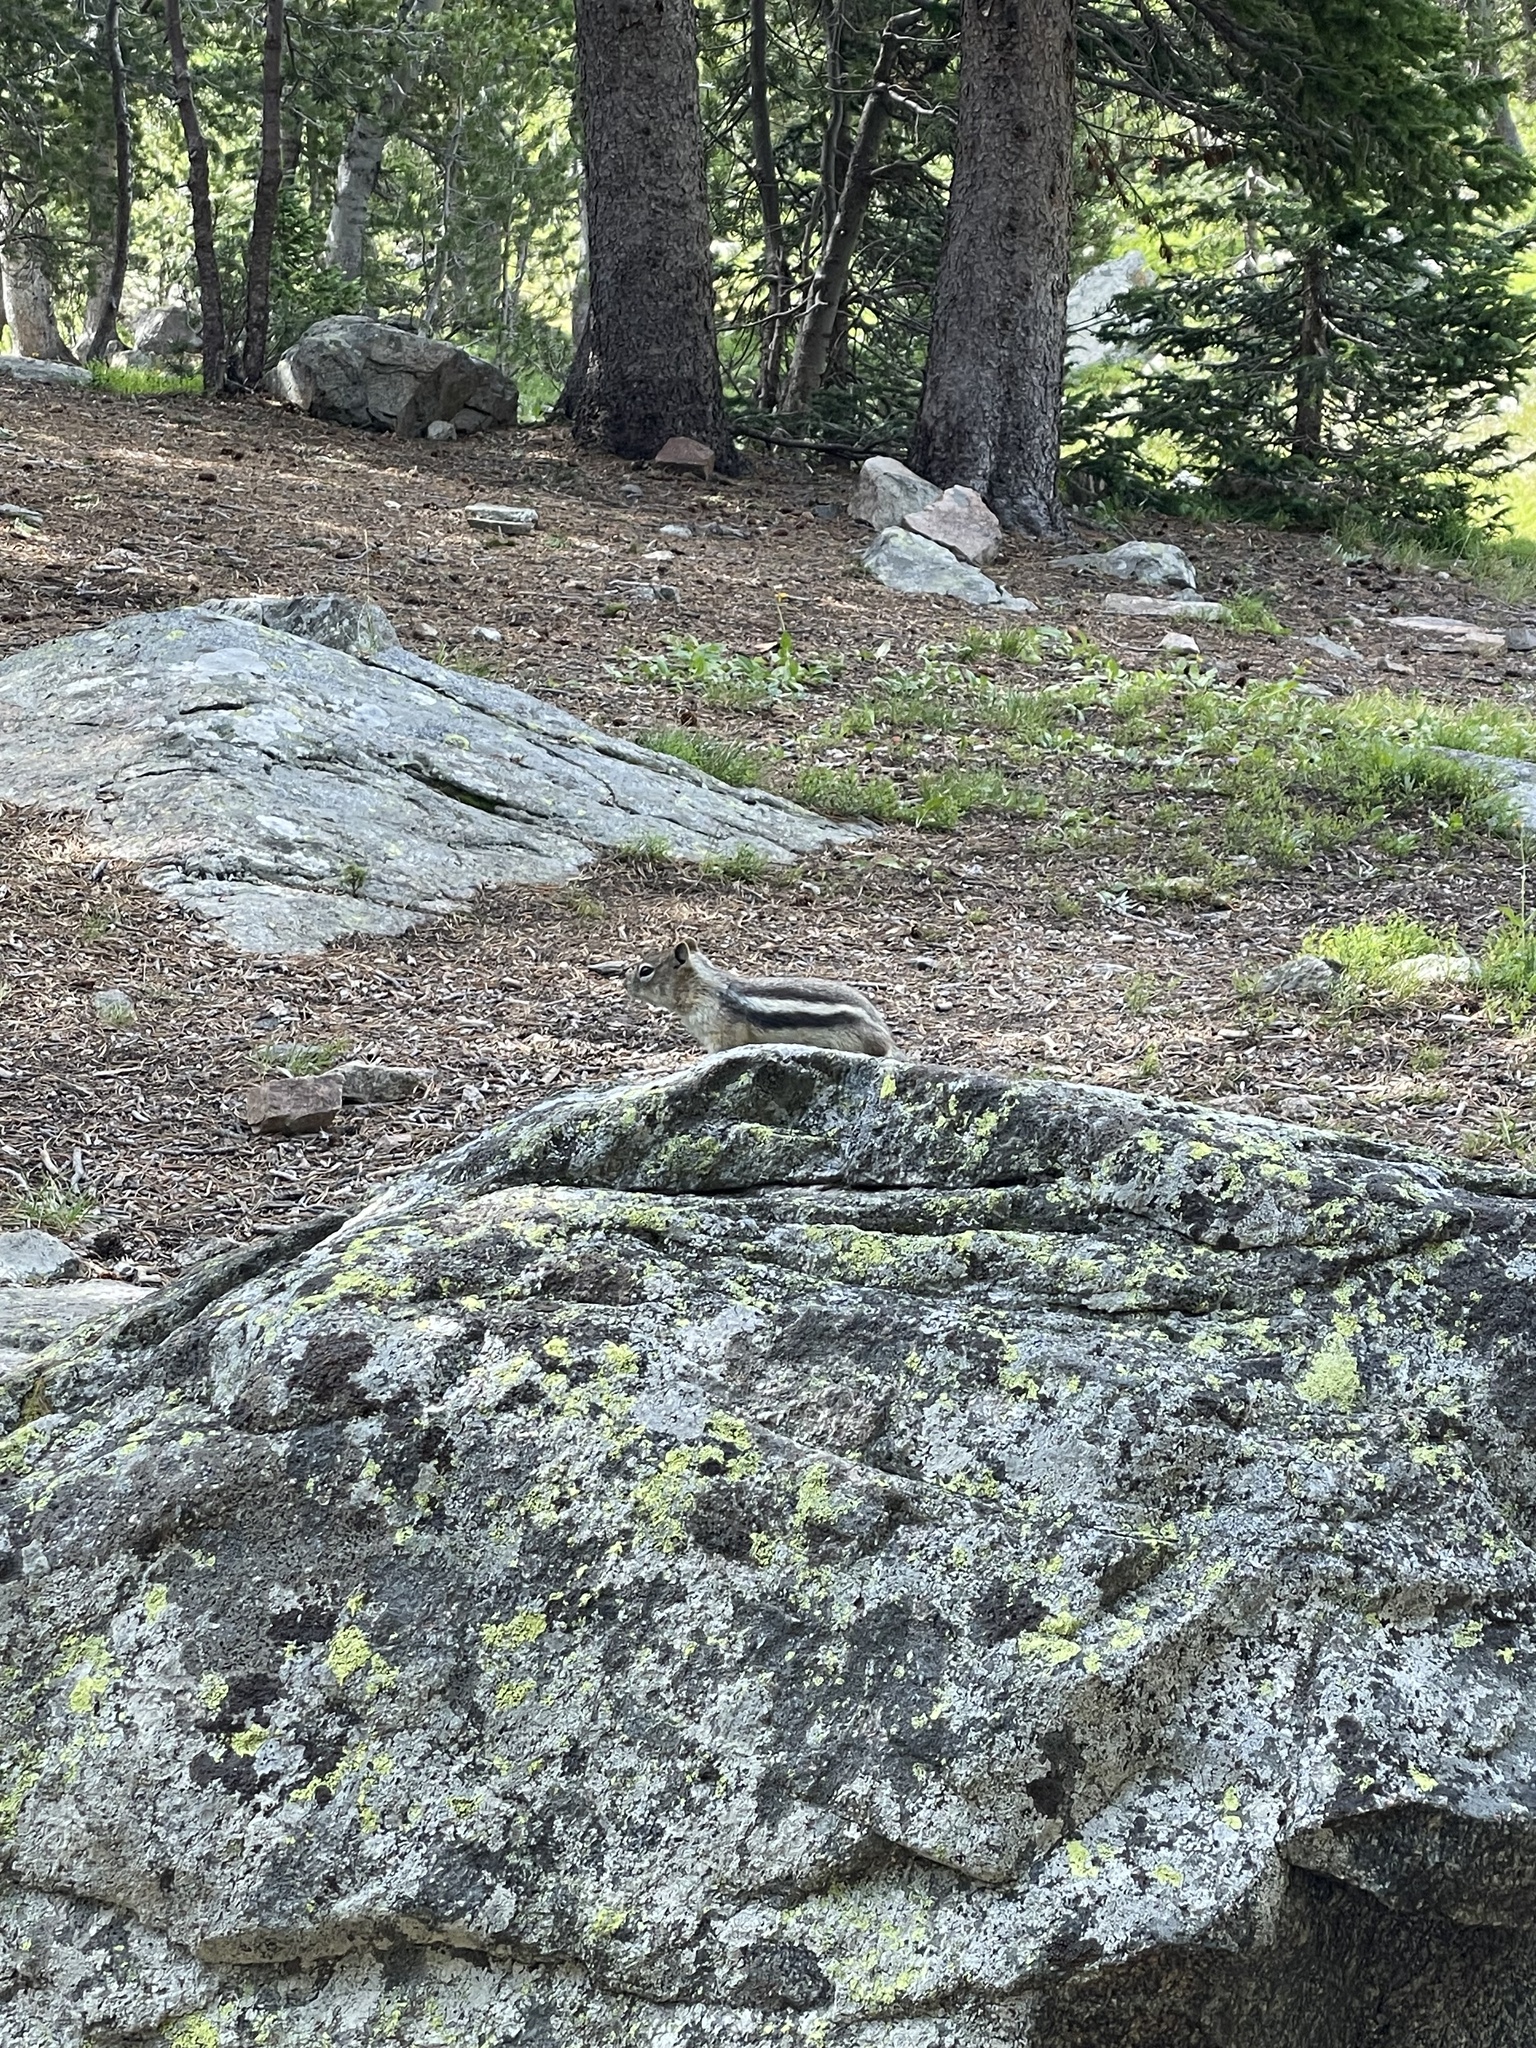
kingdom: Animalia
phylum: Chordata
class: Mammalia
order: Rodentia
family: Sciuridae
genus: Callospermophilus
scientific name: Callospermophilus lateralis
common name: Golden-mantled ground squirrel
